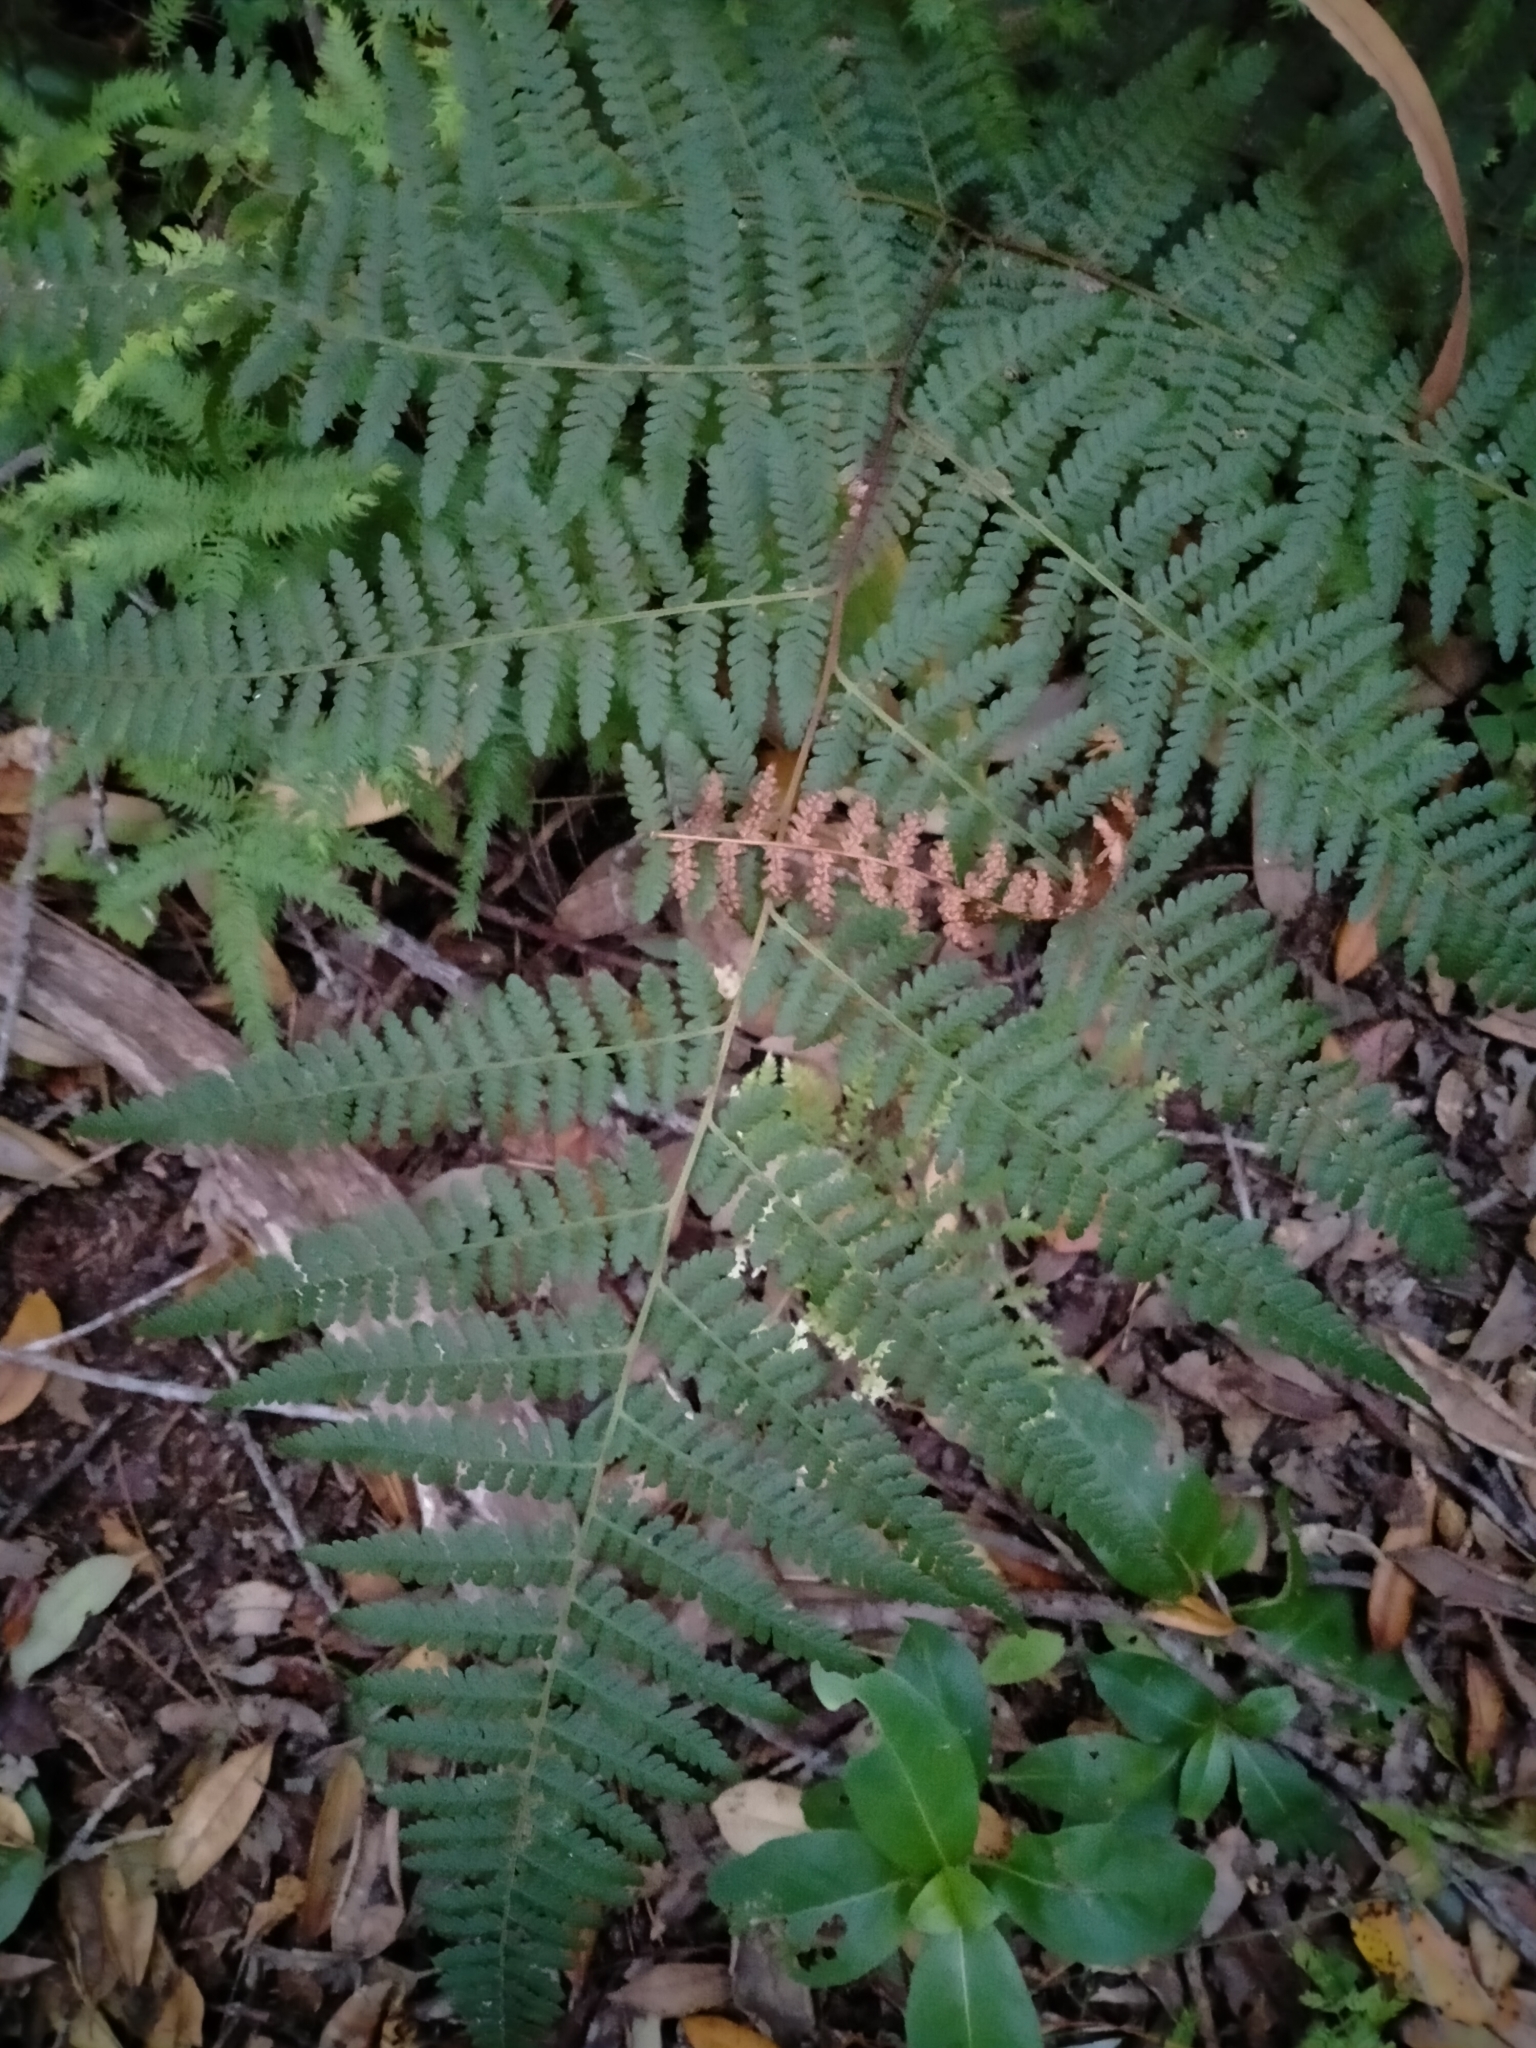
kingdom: Plantae
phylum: Tracheophyta
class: Polypodiopsida
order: Polypodiales
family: Dennstaedtiaceae
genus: Hypolepis
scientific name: Hypolepis ambigua
